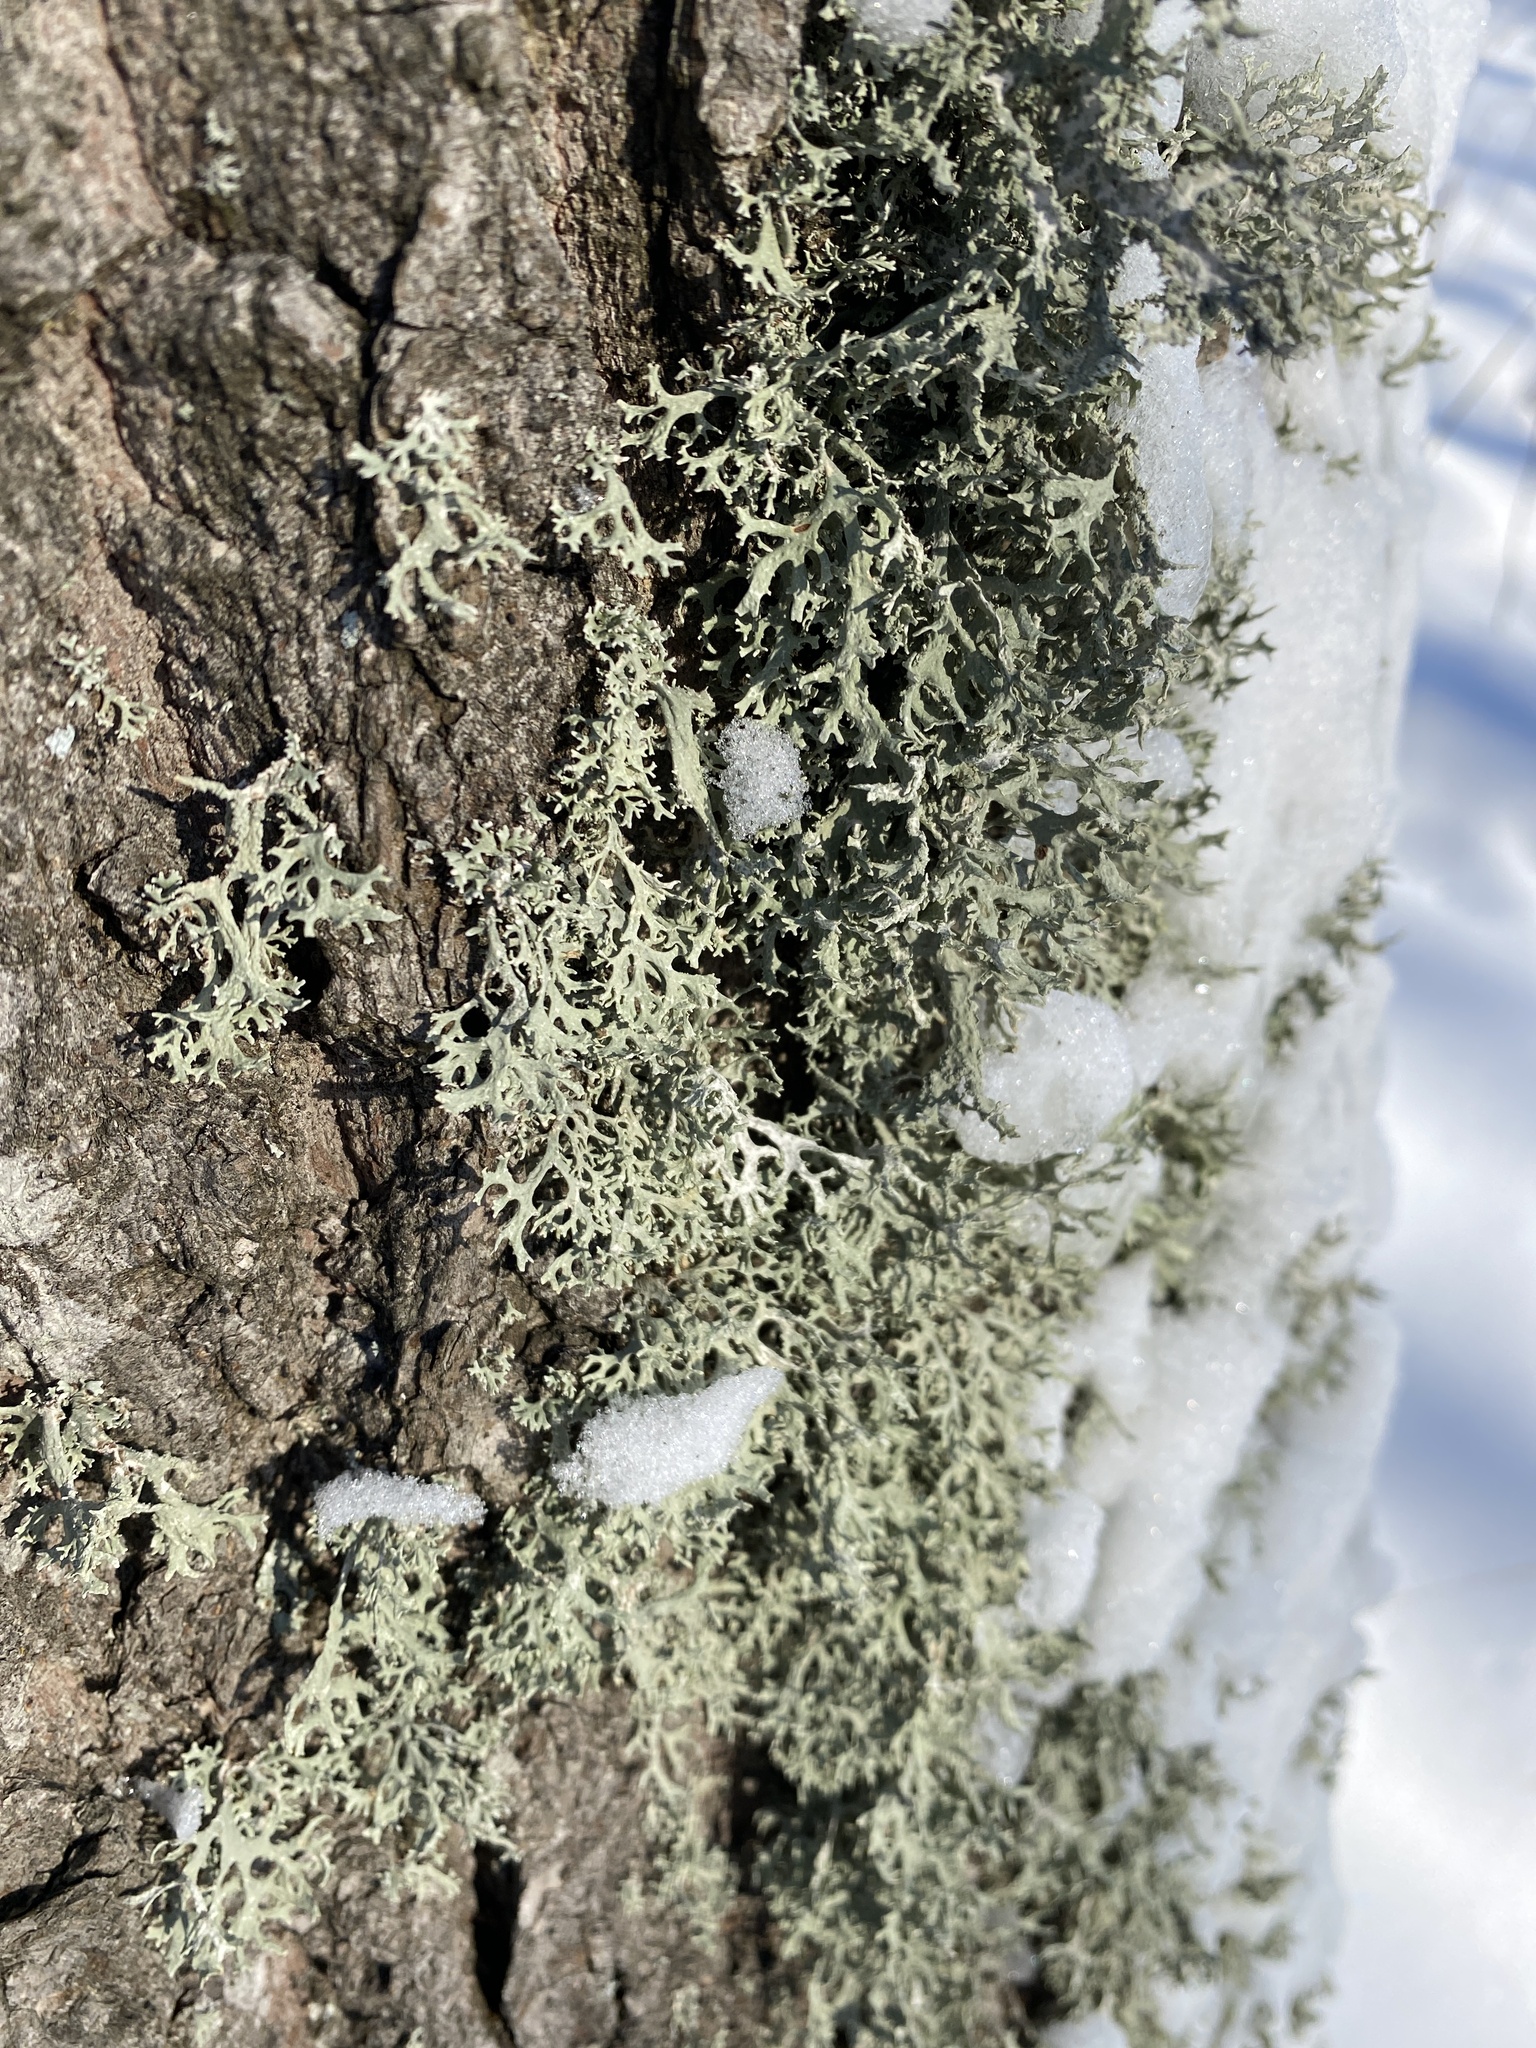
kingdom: Fungi
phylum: Ascomycota
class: Lecanoromycetes
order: Lecanorales
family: Parmeliaceae
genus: Evernia
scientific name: Evernia prunastri
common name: Oak moss
